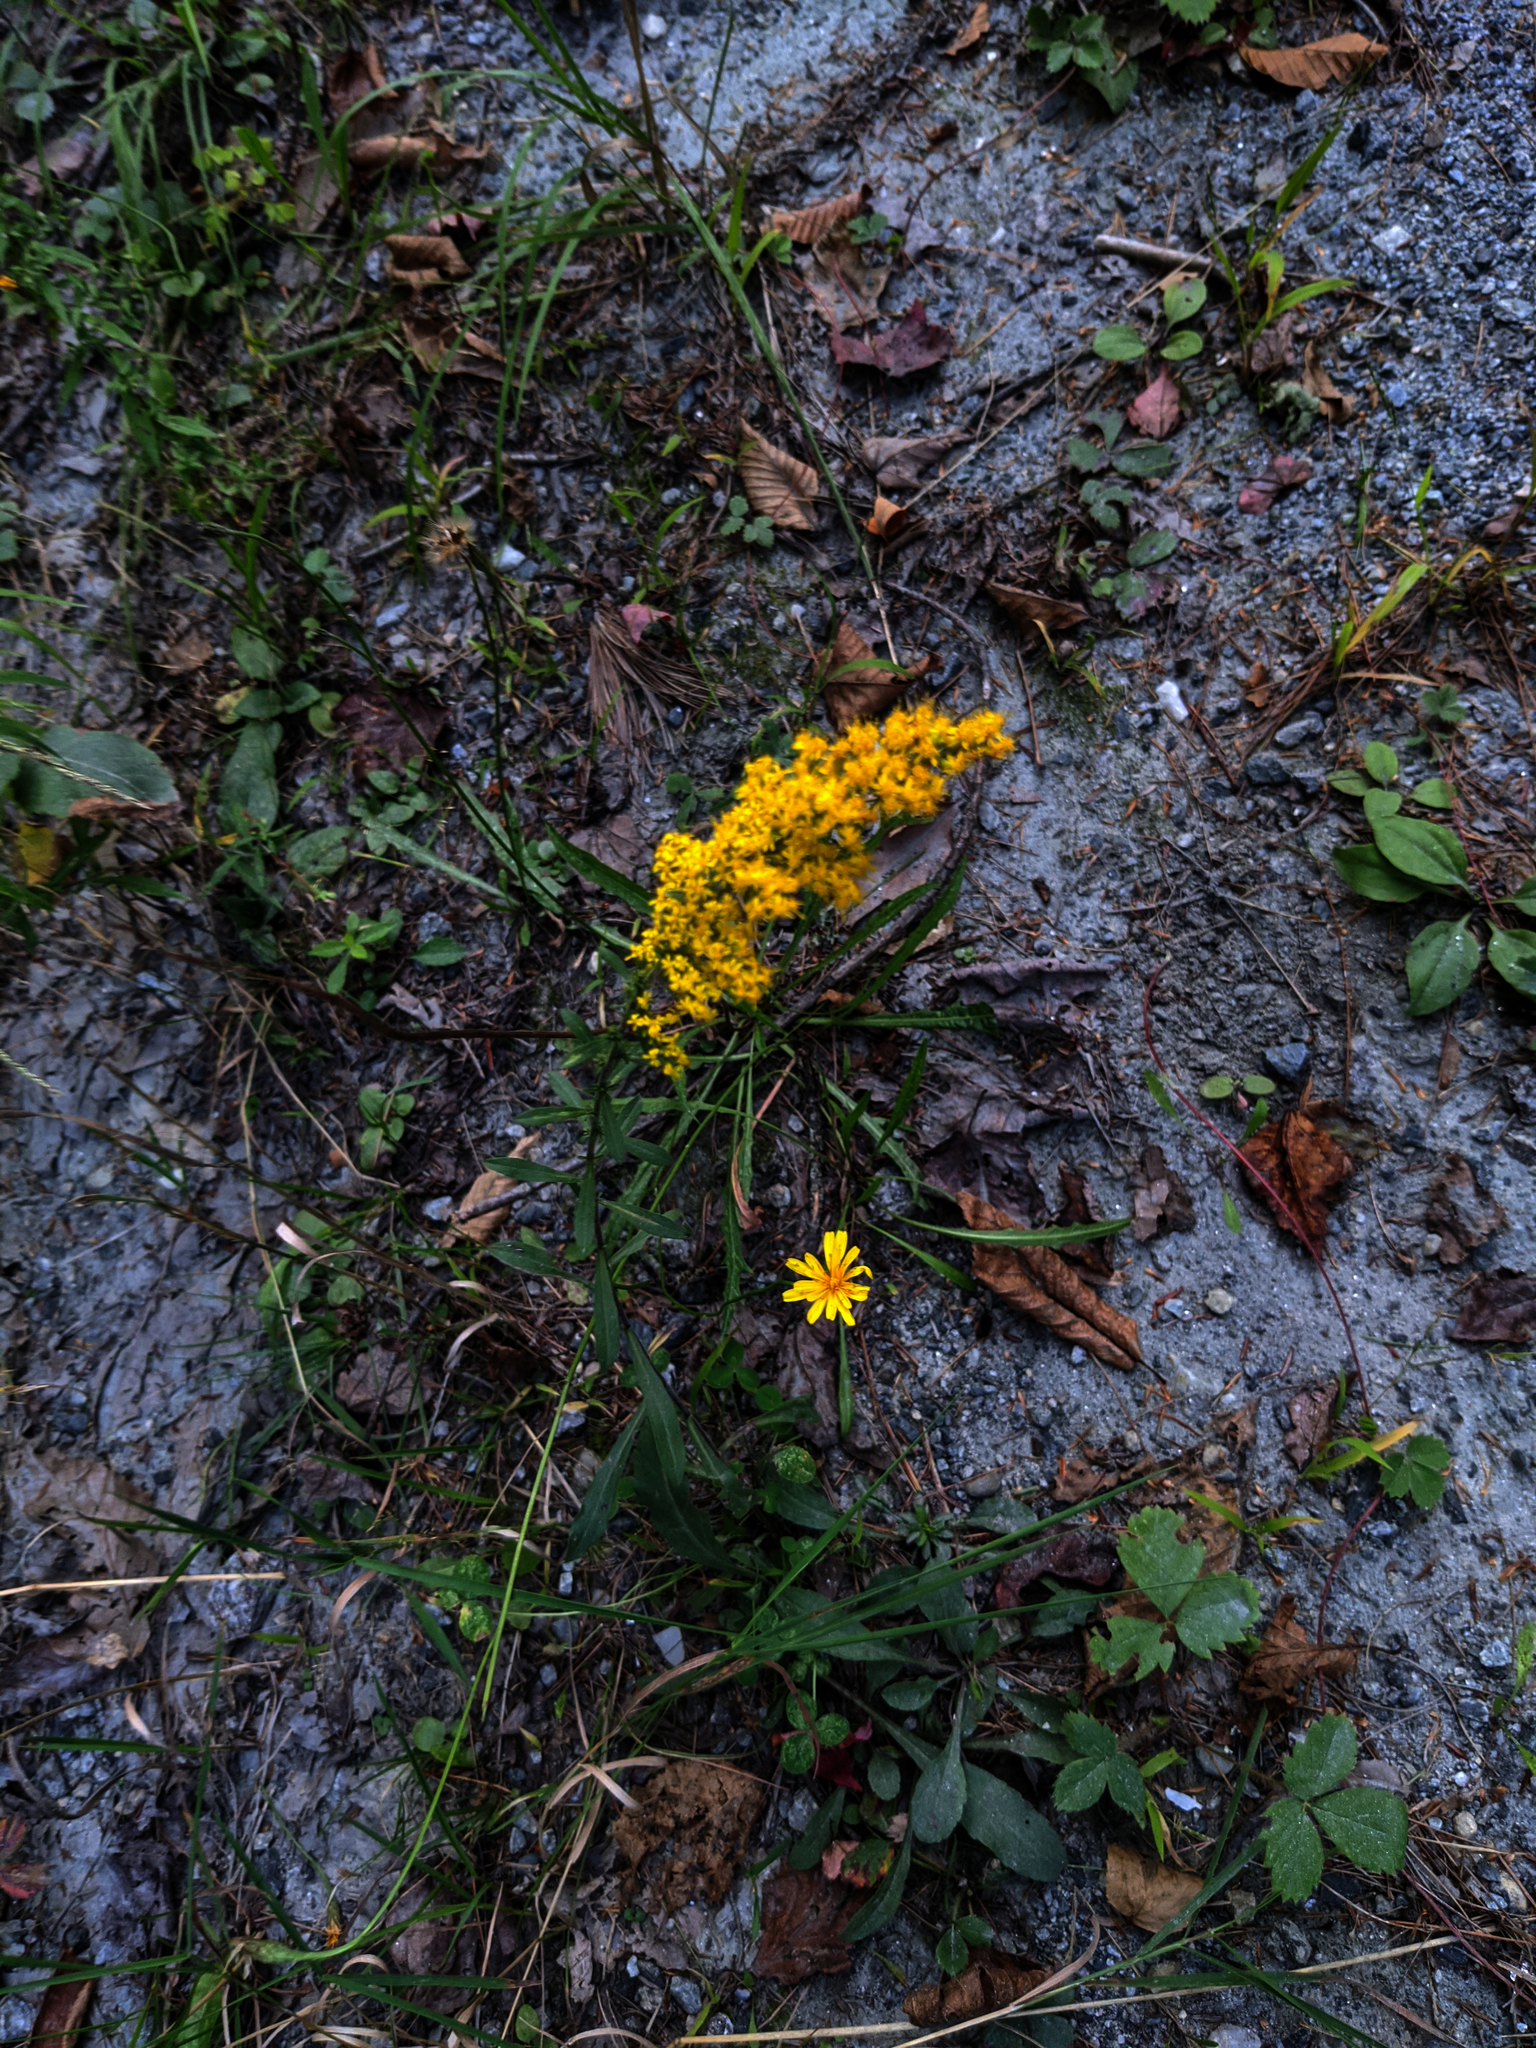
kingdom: Plantae
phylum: Tracheophyta
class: Magnoliopsida
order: Asterales
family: Asteraceae
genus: Solidago
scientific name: Solidago nemoralis
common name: Grey goldenrod
